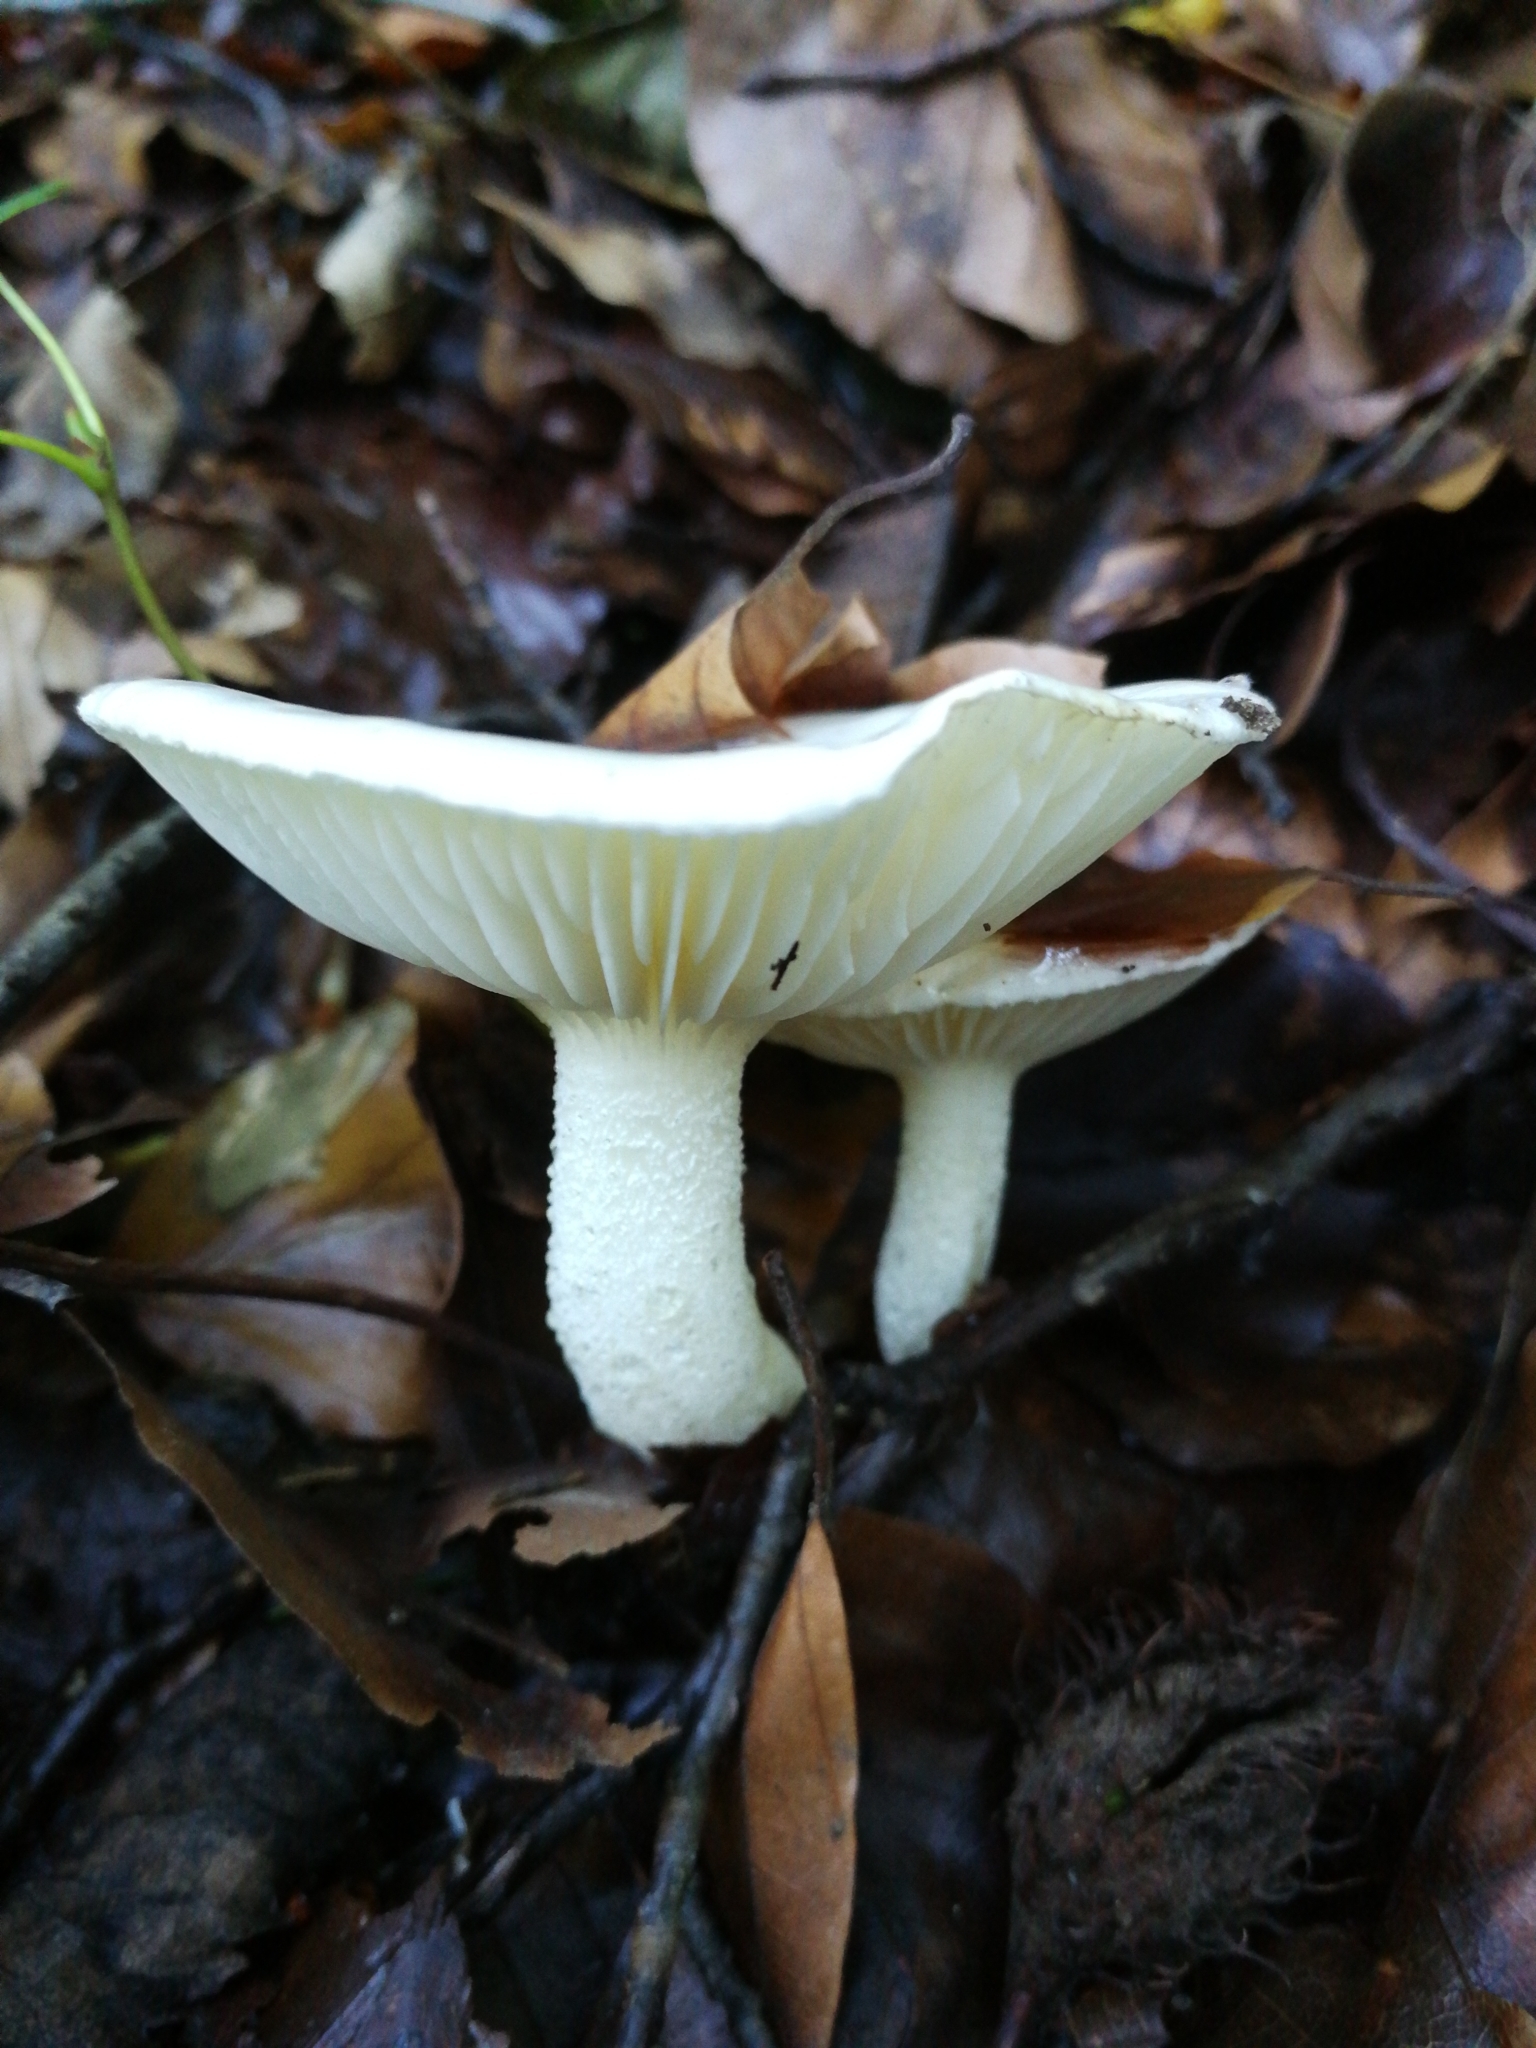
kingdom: Fungi
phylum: Basidiomycota
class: Agaricomycetes
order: Agaricales
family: Hygrophoraceae
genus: Hygrophorus
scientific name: Hygrophorus eburneus
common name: Ivory wax-cap
